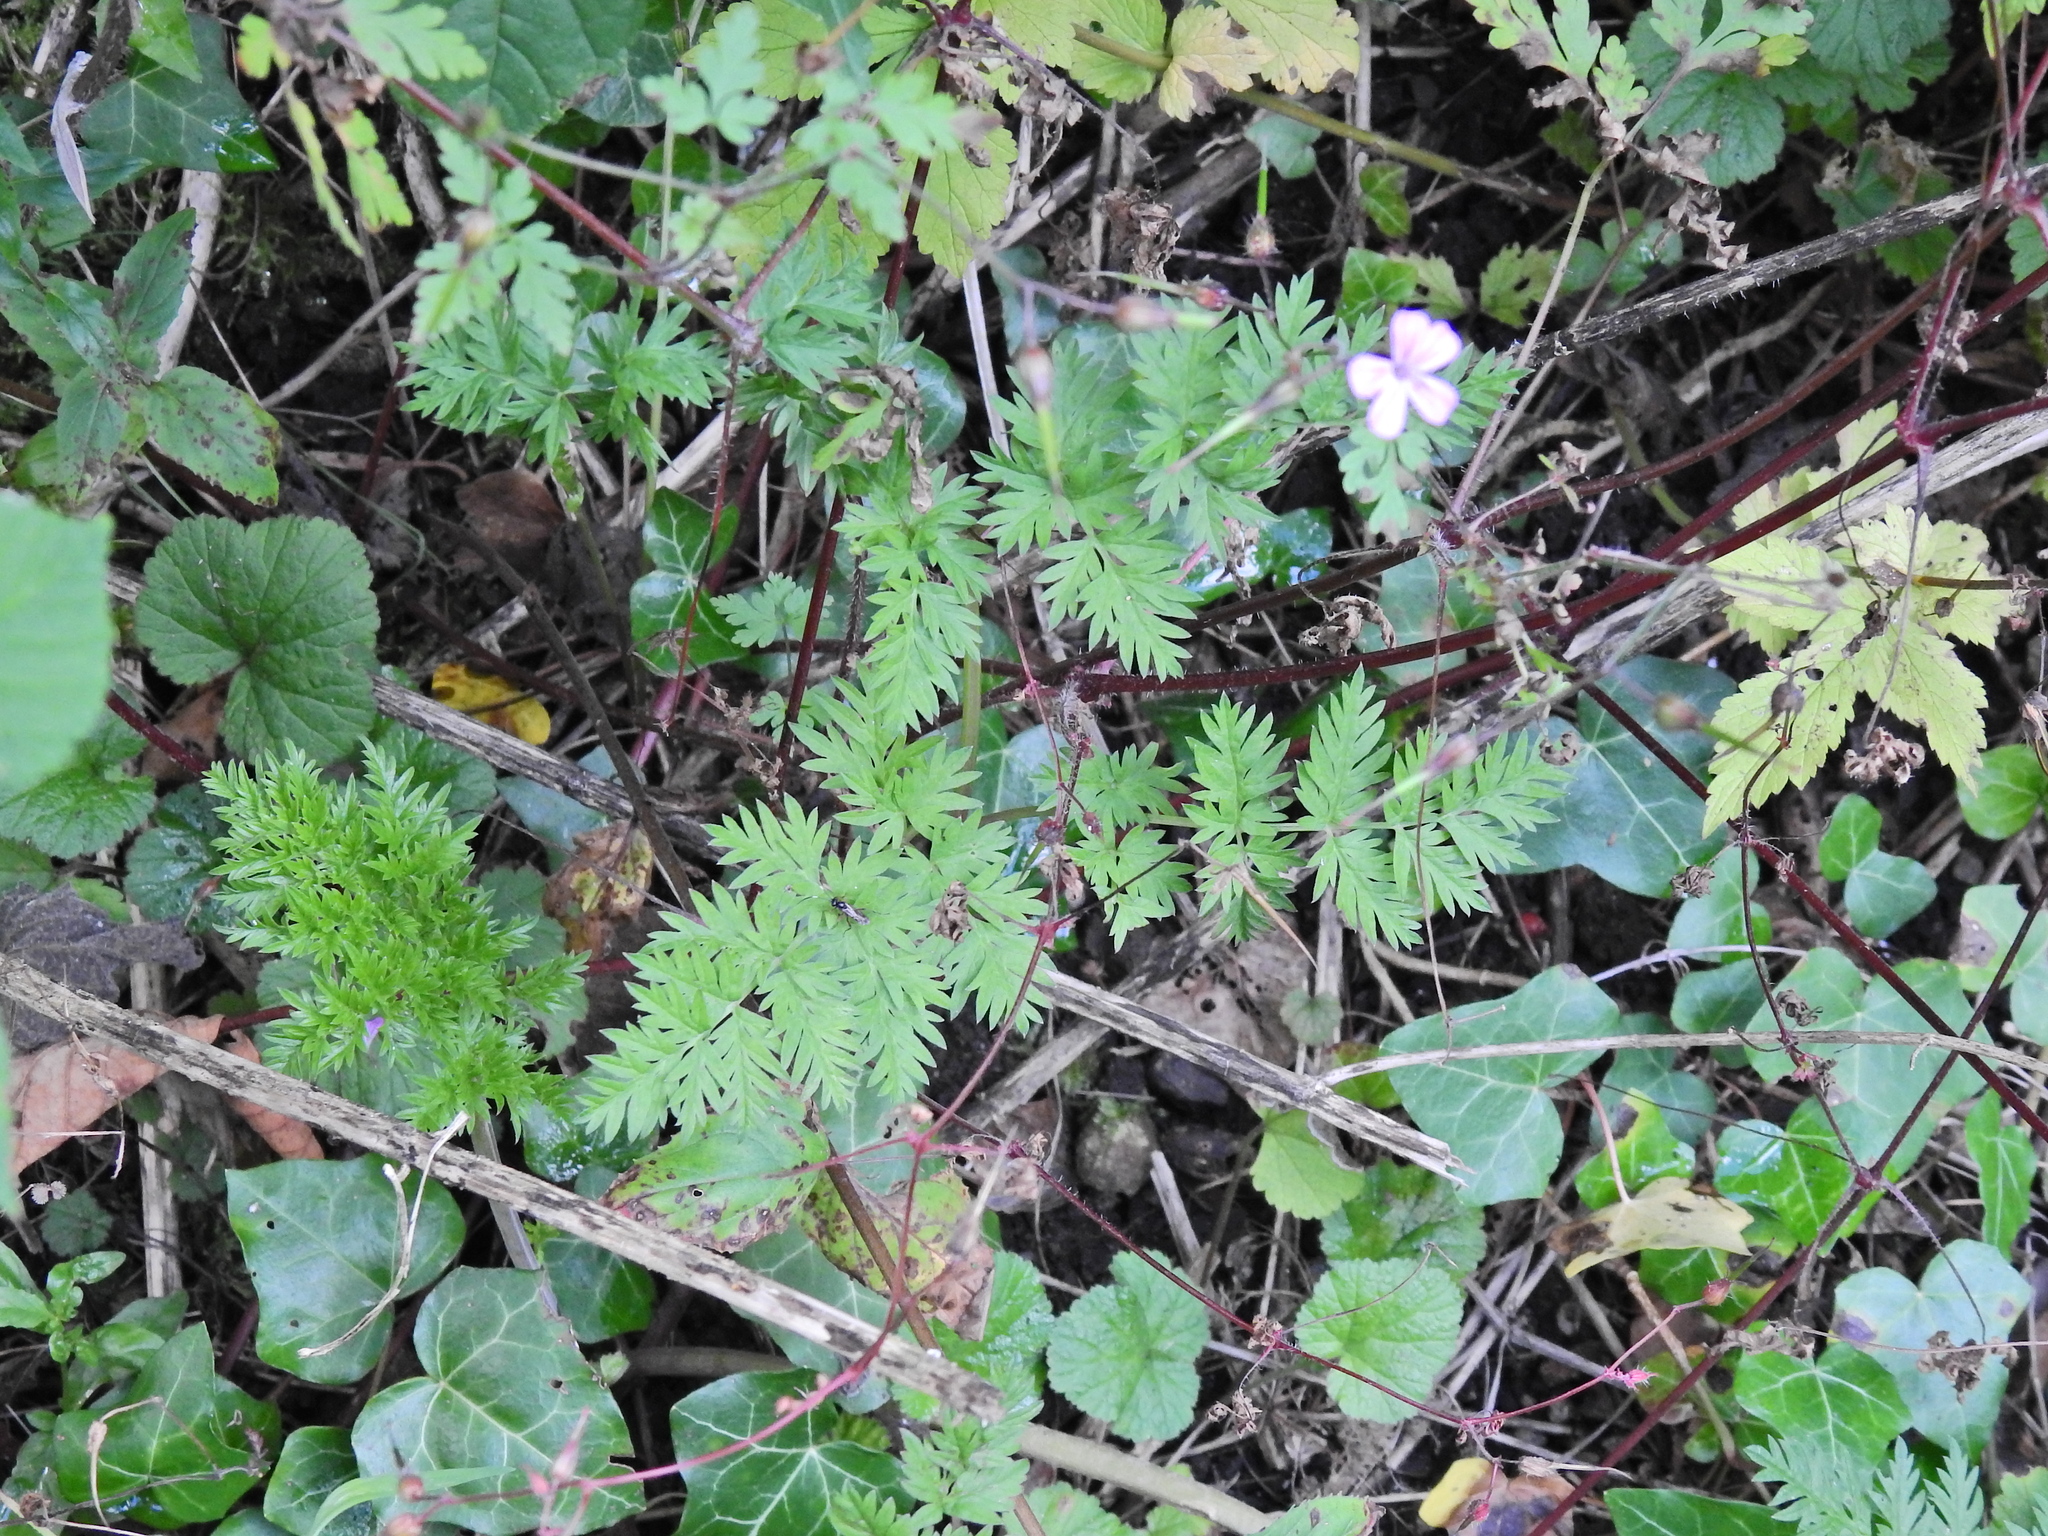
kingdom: Plantae
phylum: Tracheophyta
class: Magnoliopsida
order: Geraniales
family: Geraniaceae
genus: Geranium
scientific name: Geranium robertianum
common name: Herb-robert
